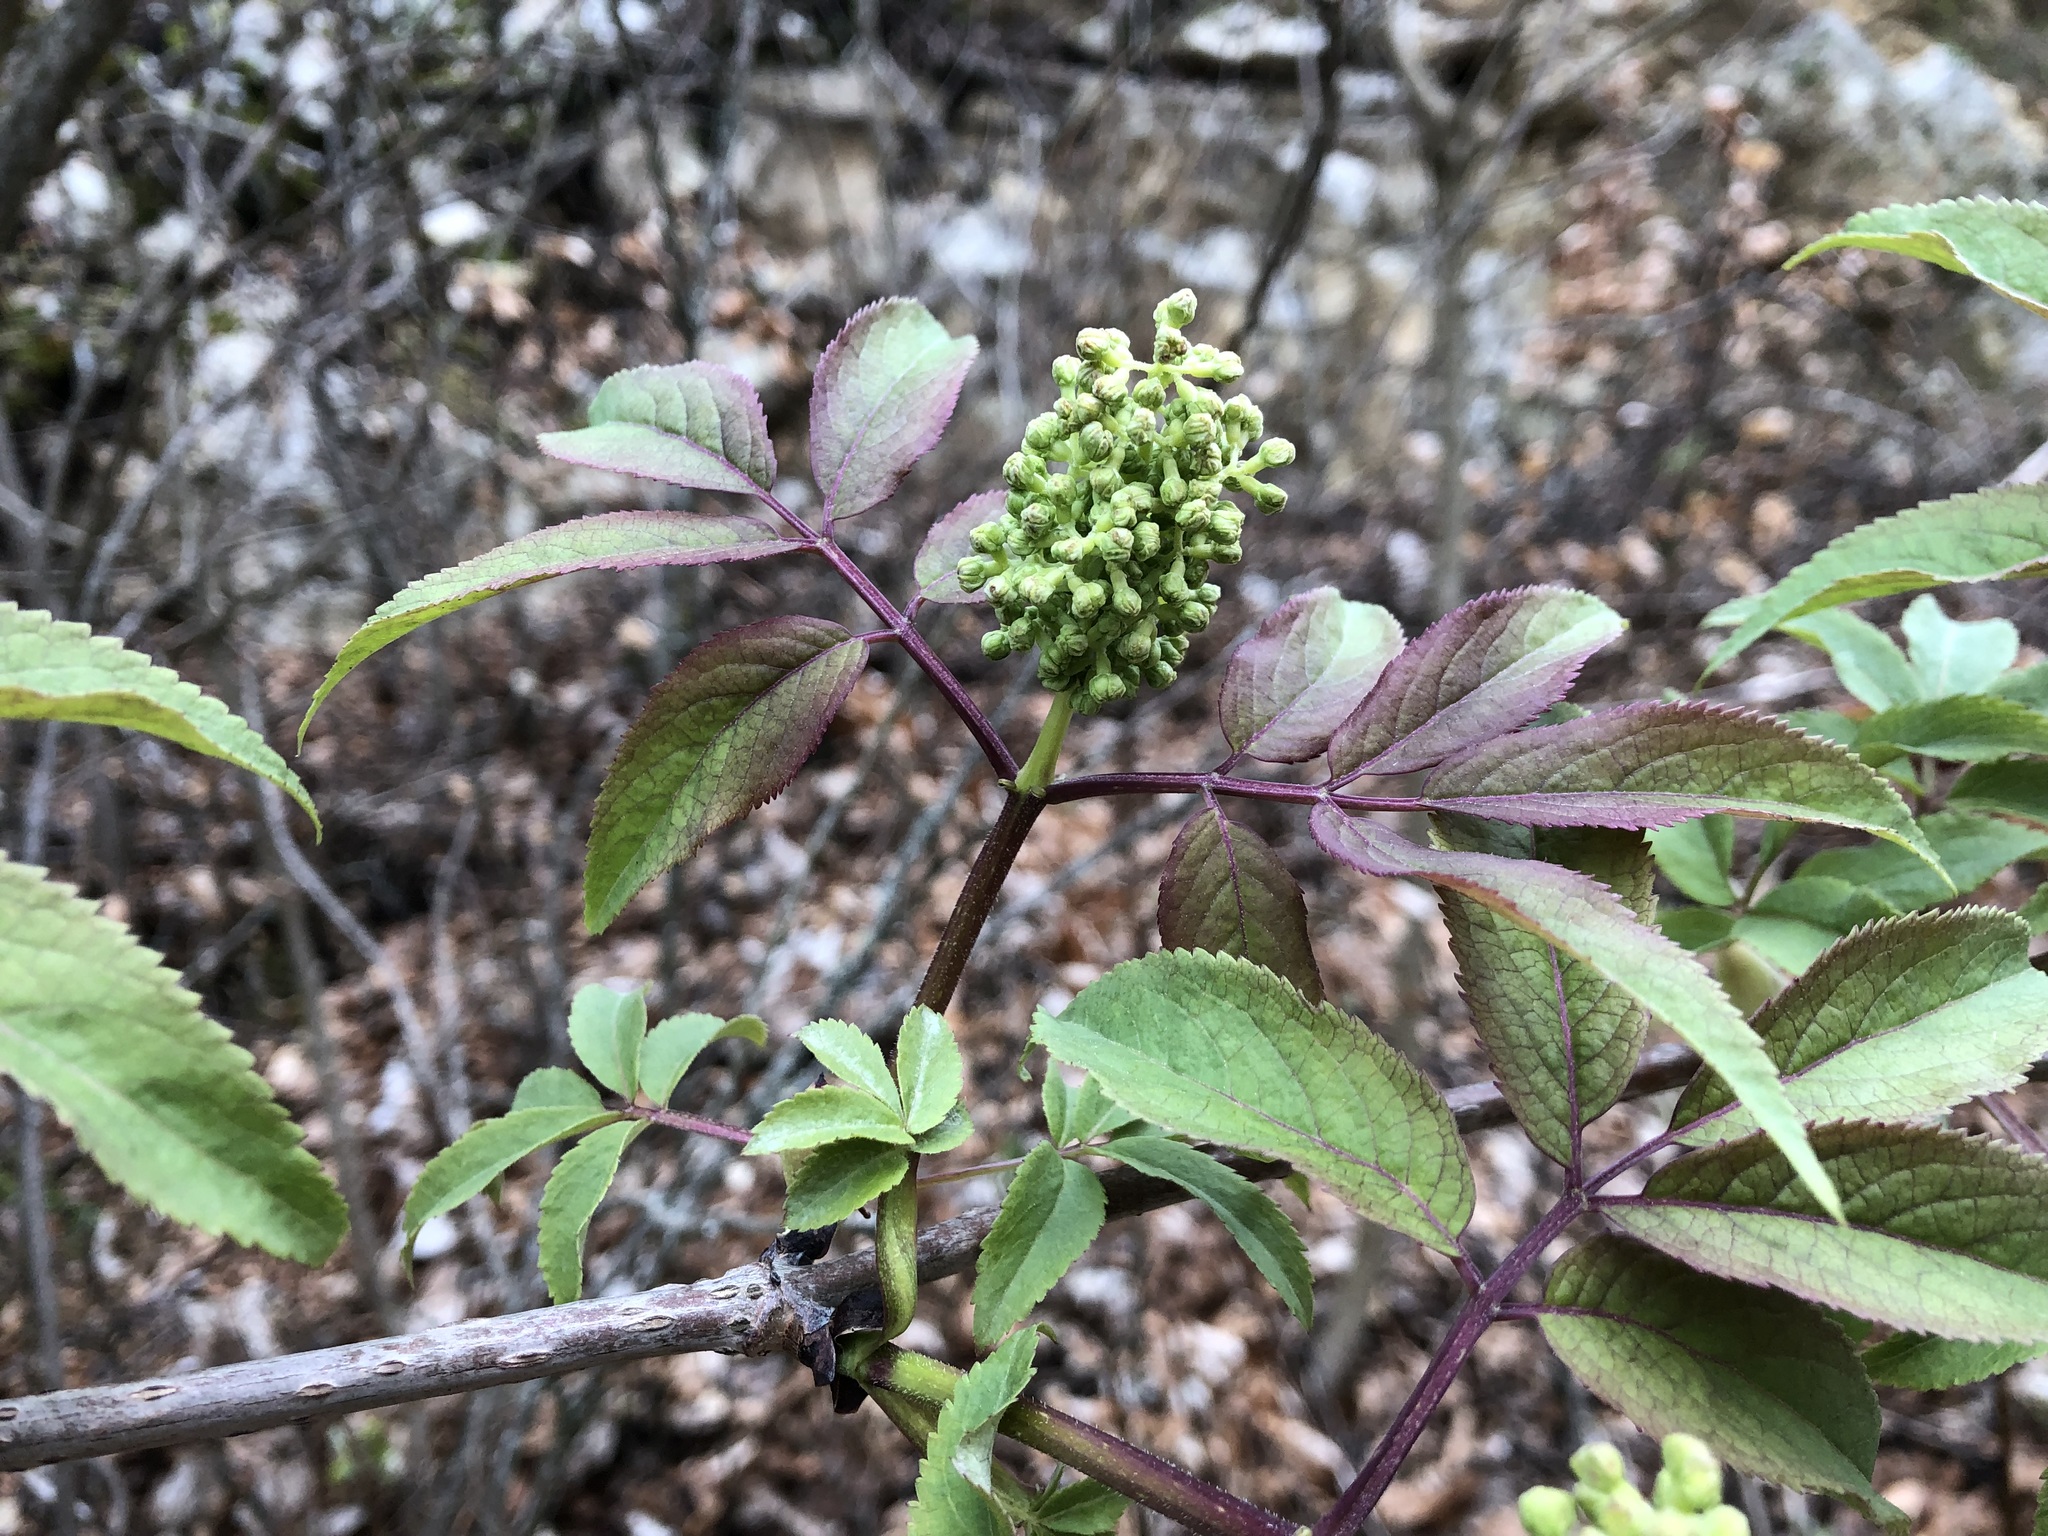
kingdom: Plantae
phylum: Tracheophyta
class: Magnoliopsida
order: Dipsacales
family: Viburnaceae
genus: Sambucus
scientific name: Sambucus racemosa
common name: Red-berried elder
